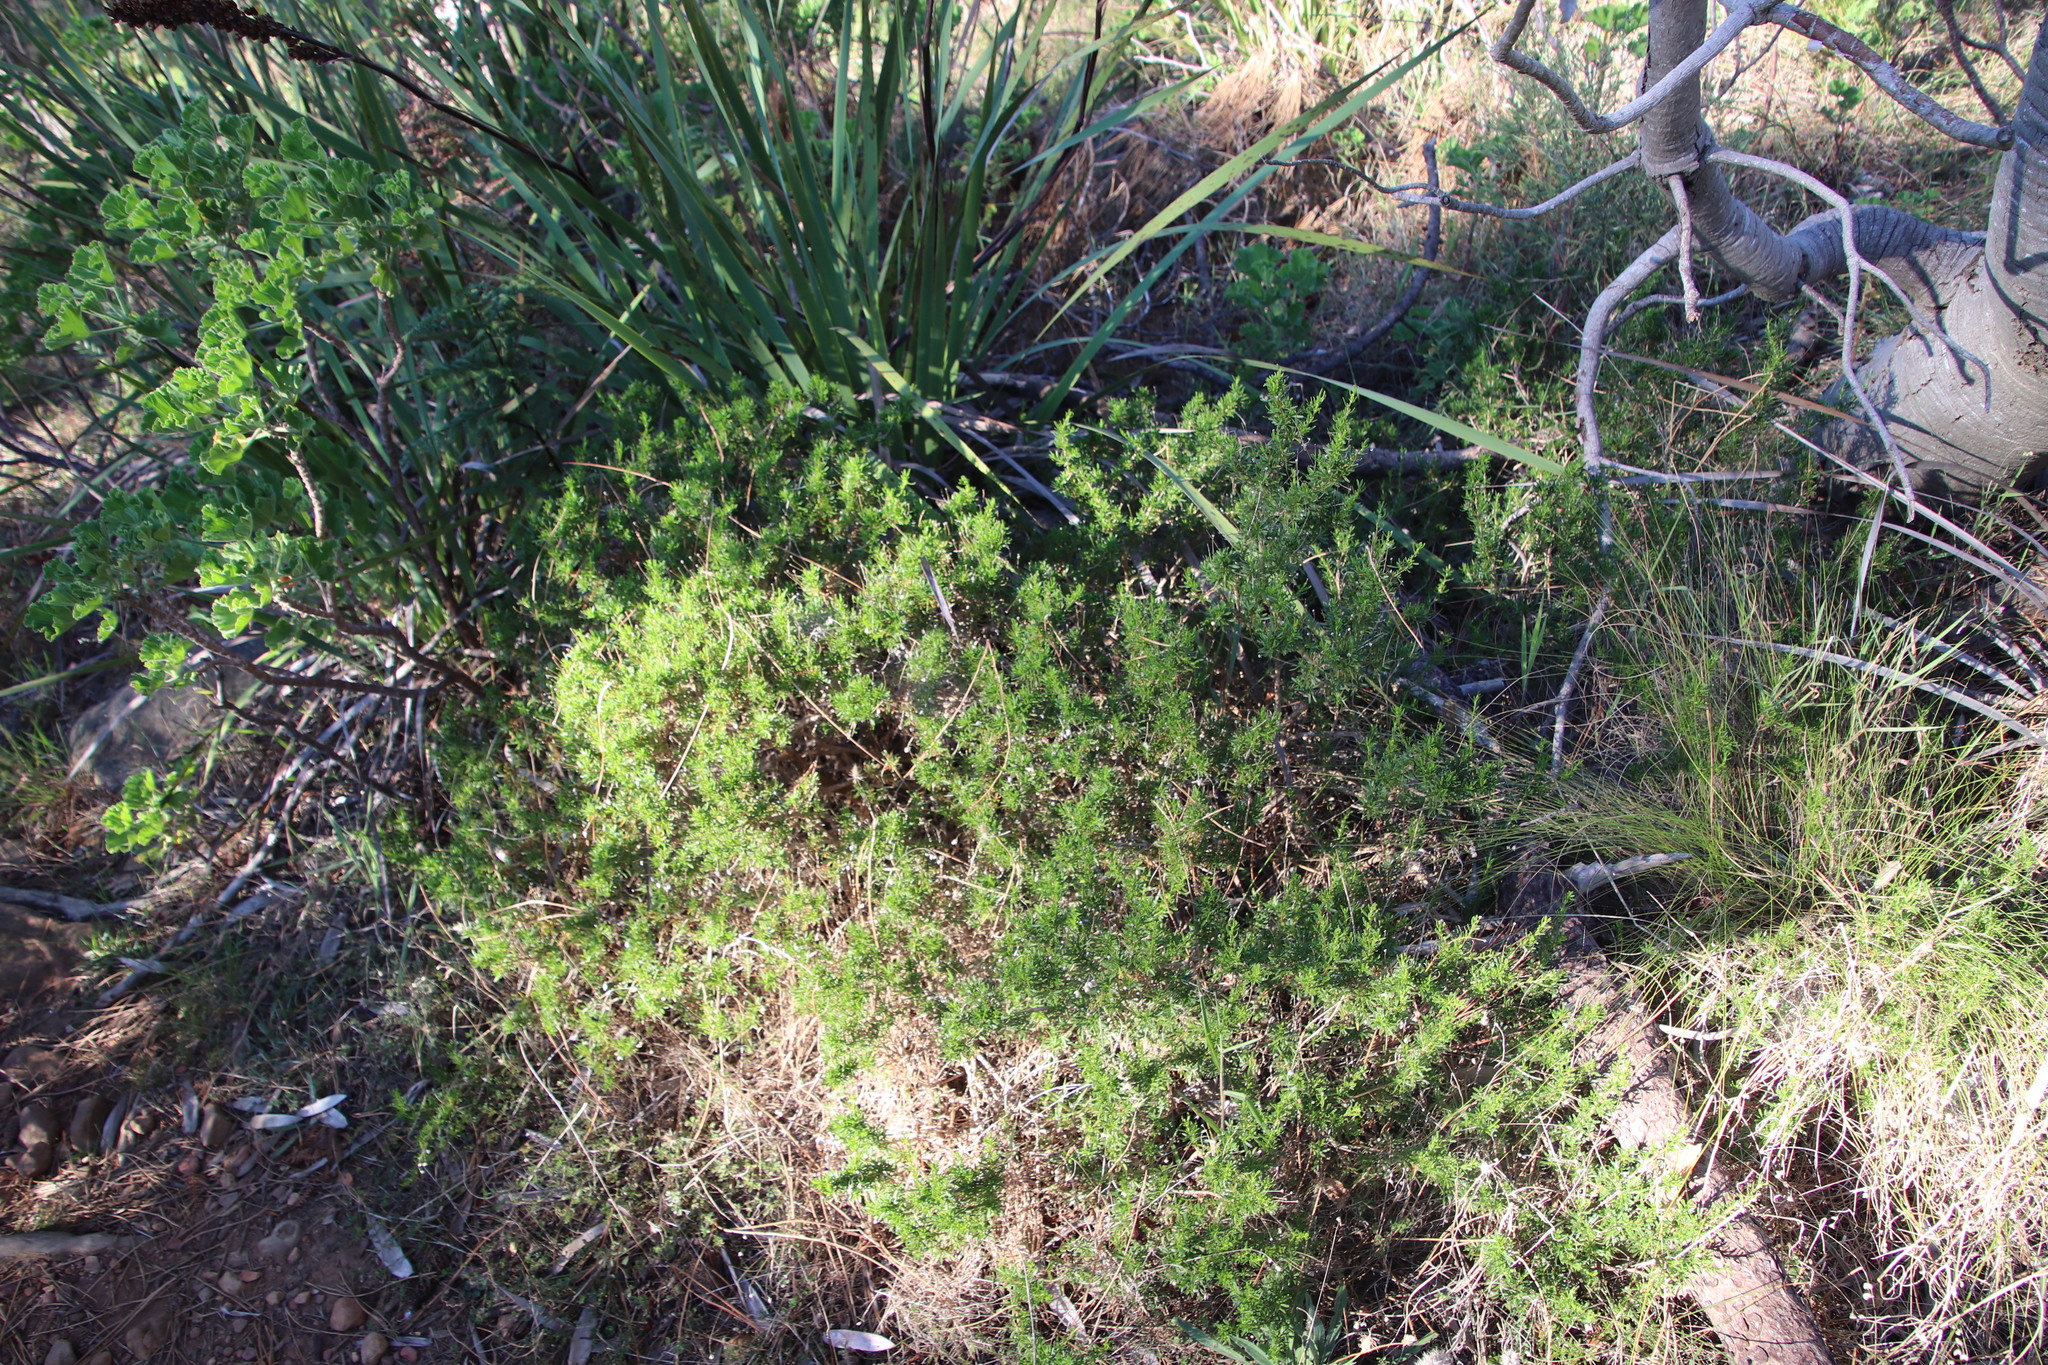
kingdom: Plantae
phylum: Tracheophyta
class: Magnoliopsida
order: Asterales
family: Asteraceae
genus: Felicia
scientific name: Felicia fruticosa
